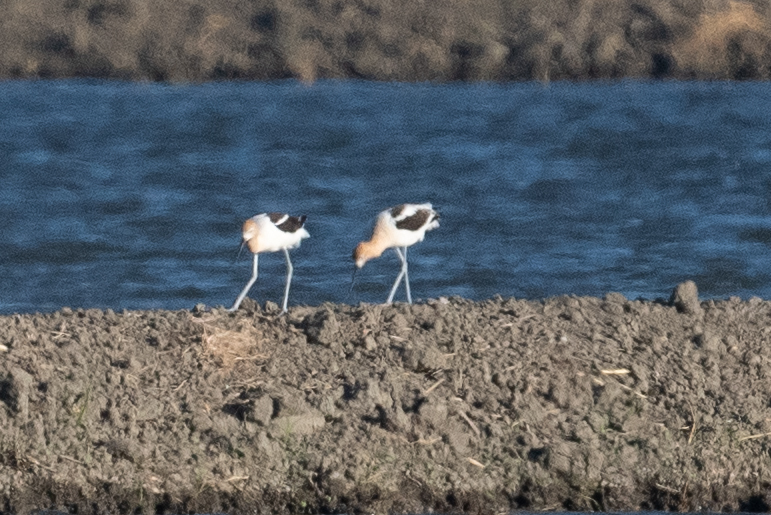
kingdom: Animalia
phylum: Chordata
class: Aves
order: Charadriiformes
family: Recurvirostridae
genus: Recurvirostra
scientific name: Recurvirostra americana
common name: American avocet
